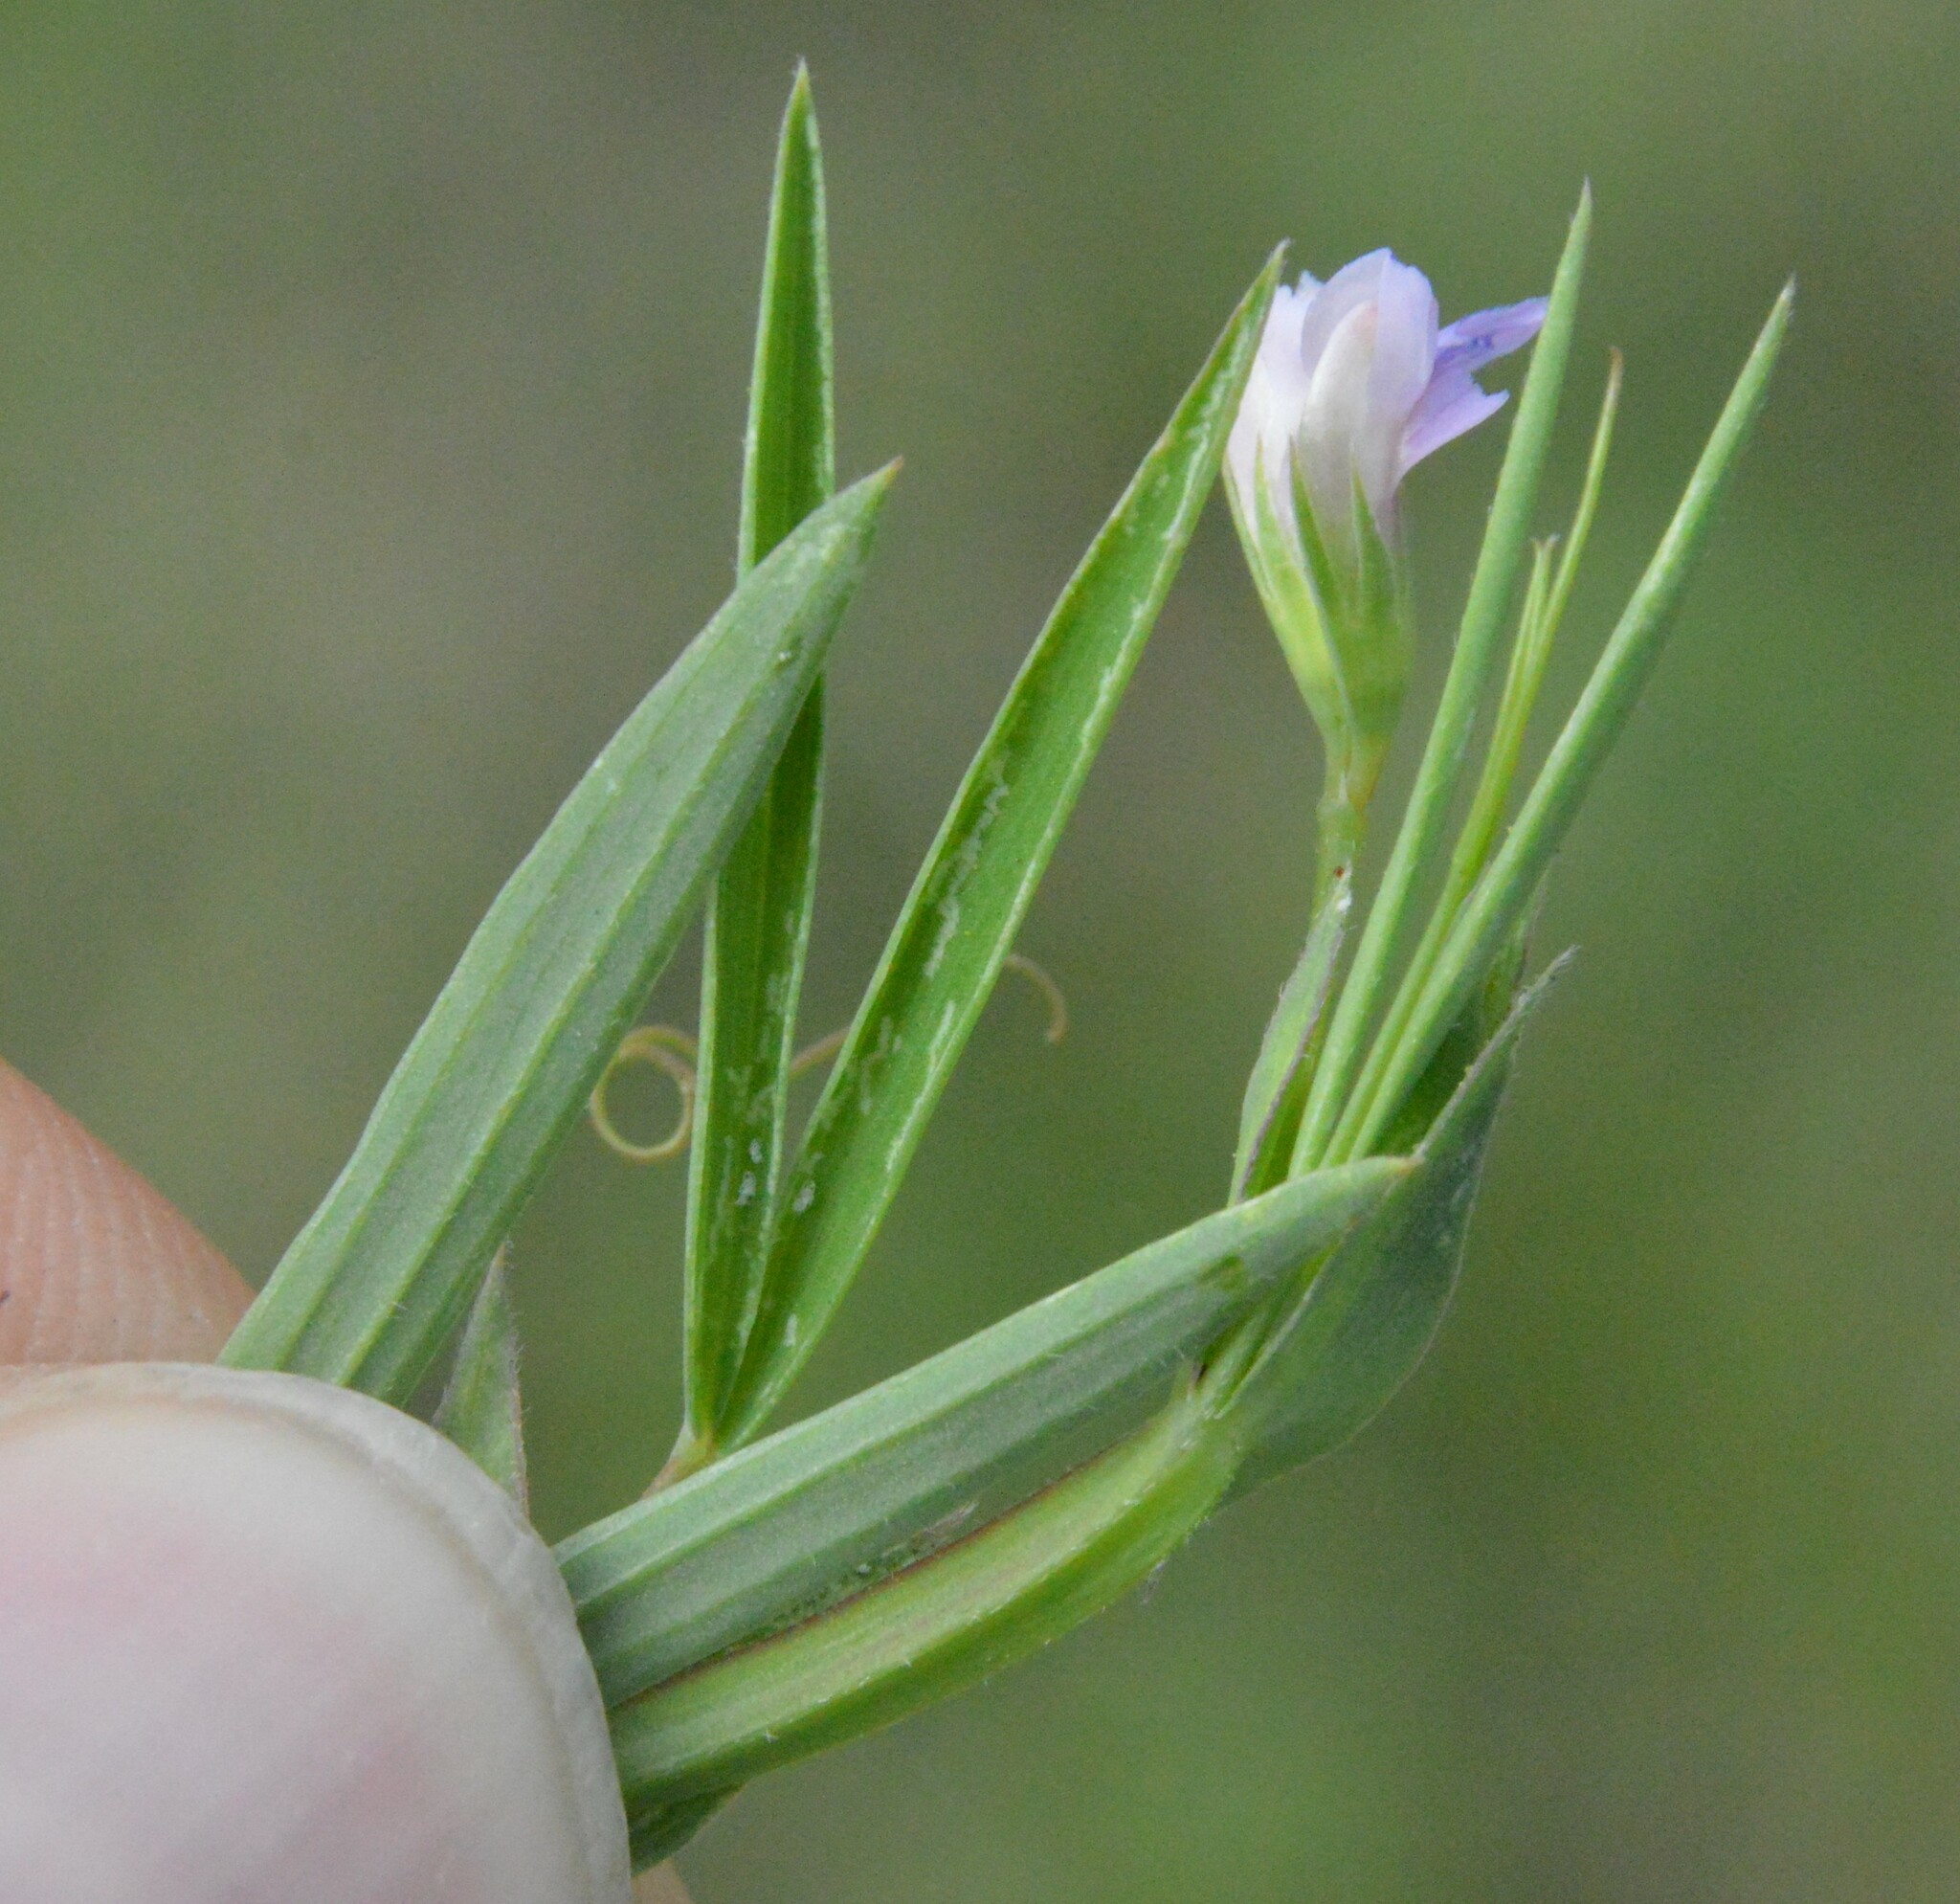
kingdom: Plantae
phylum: Tracheophyta
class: Magnoliopsida
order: Fabales
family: Fabaceae
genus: Lathyrus
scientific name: Lathyrus pusillus
